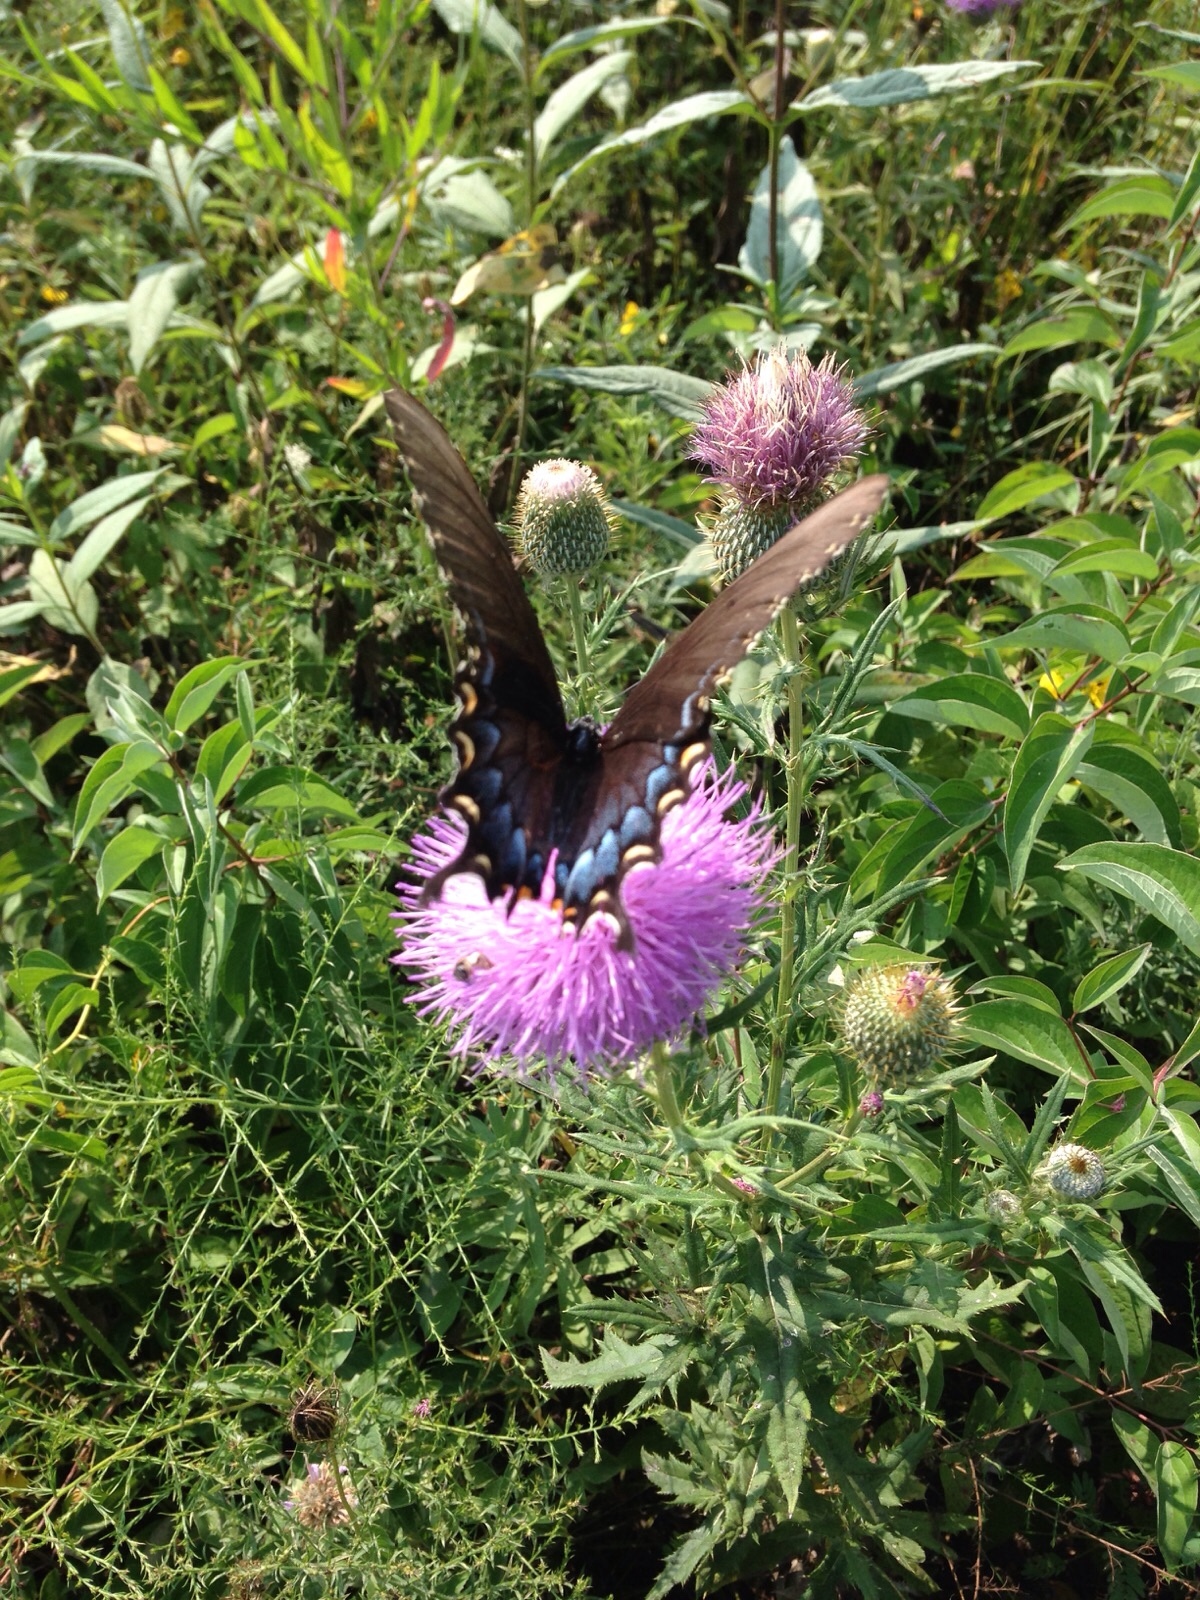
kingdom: Animalia
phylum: Arthropoda
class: Insecta
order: Lepidoptera
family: Papilionidae
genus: Papilio
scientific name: Papilio glaucus
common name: Tiger swallowtail
